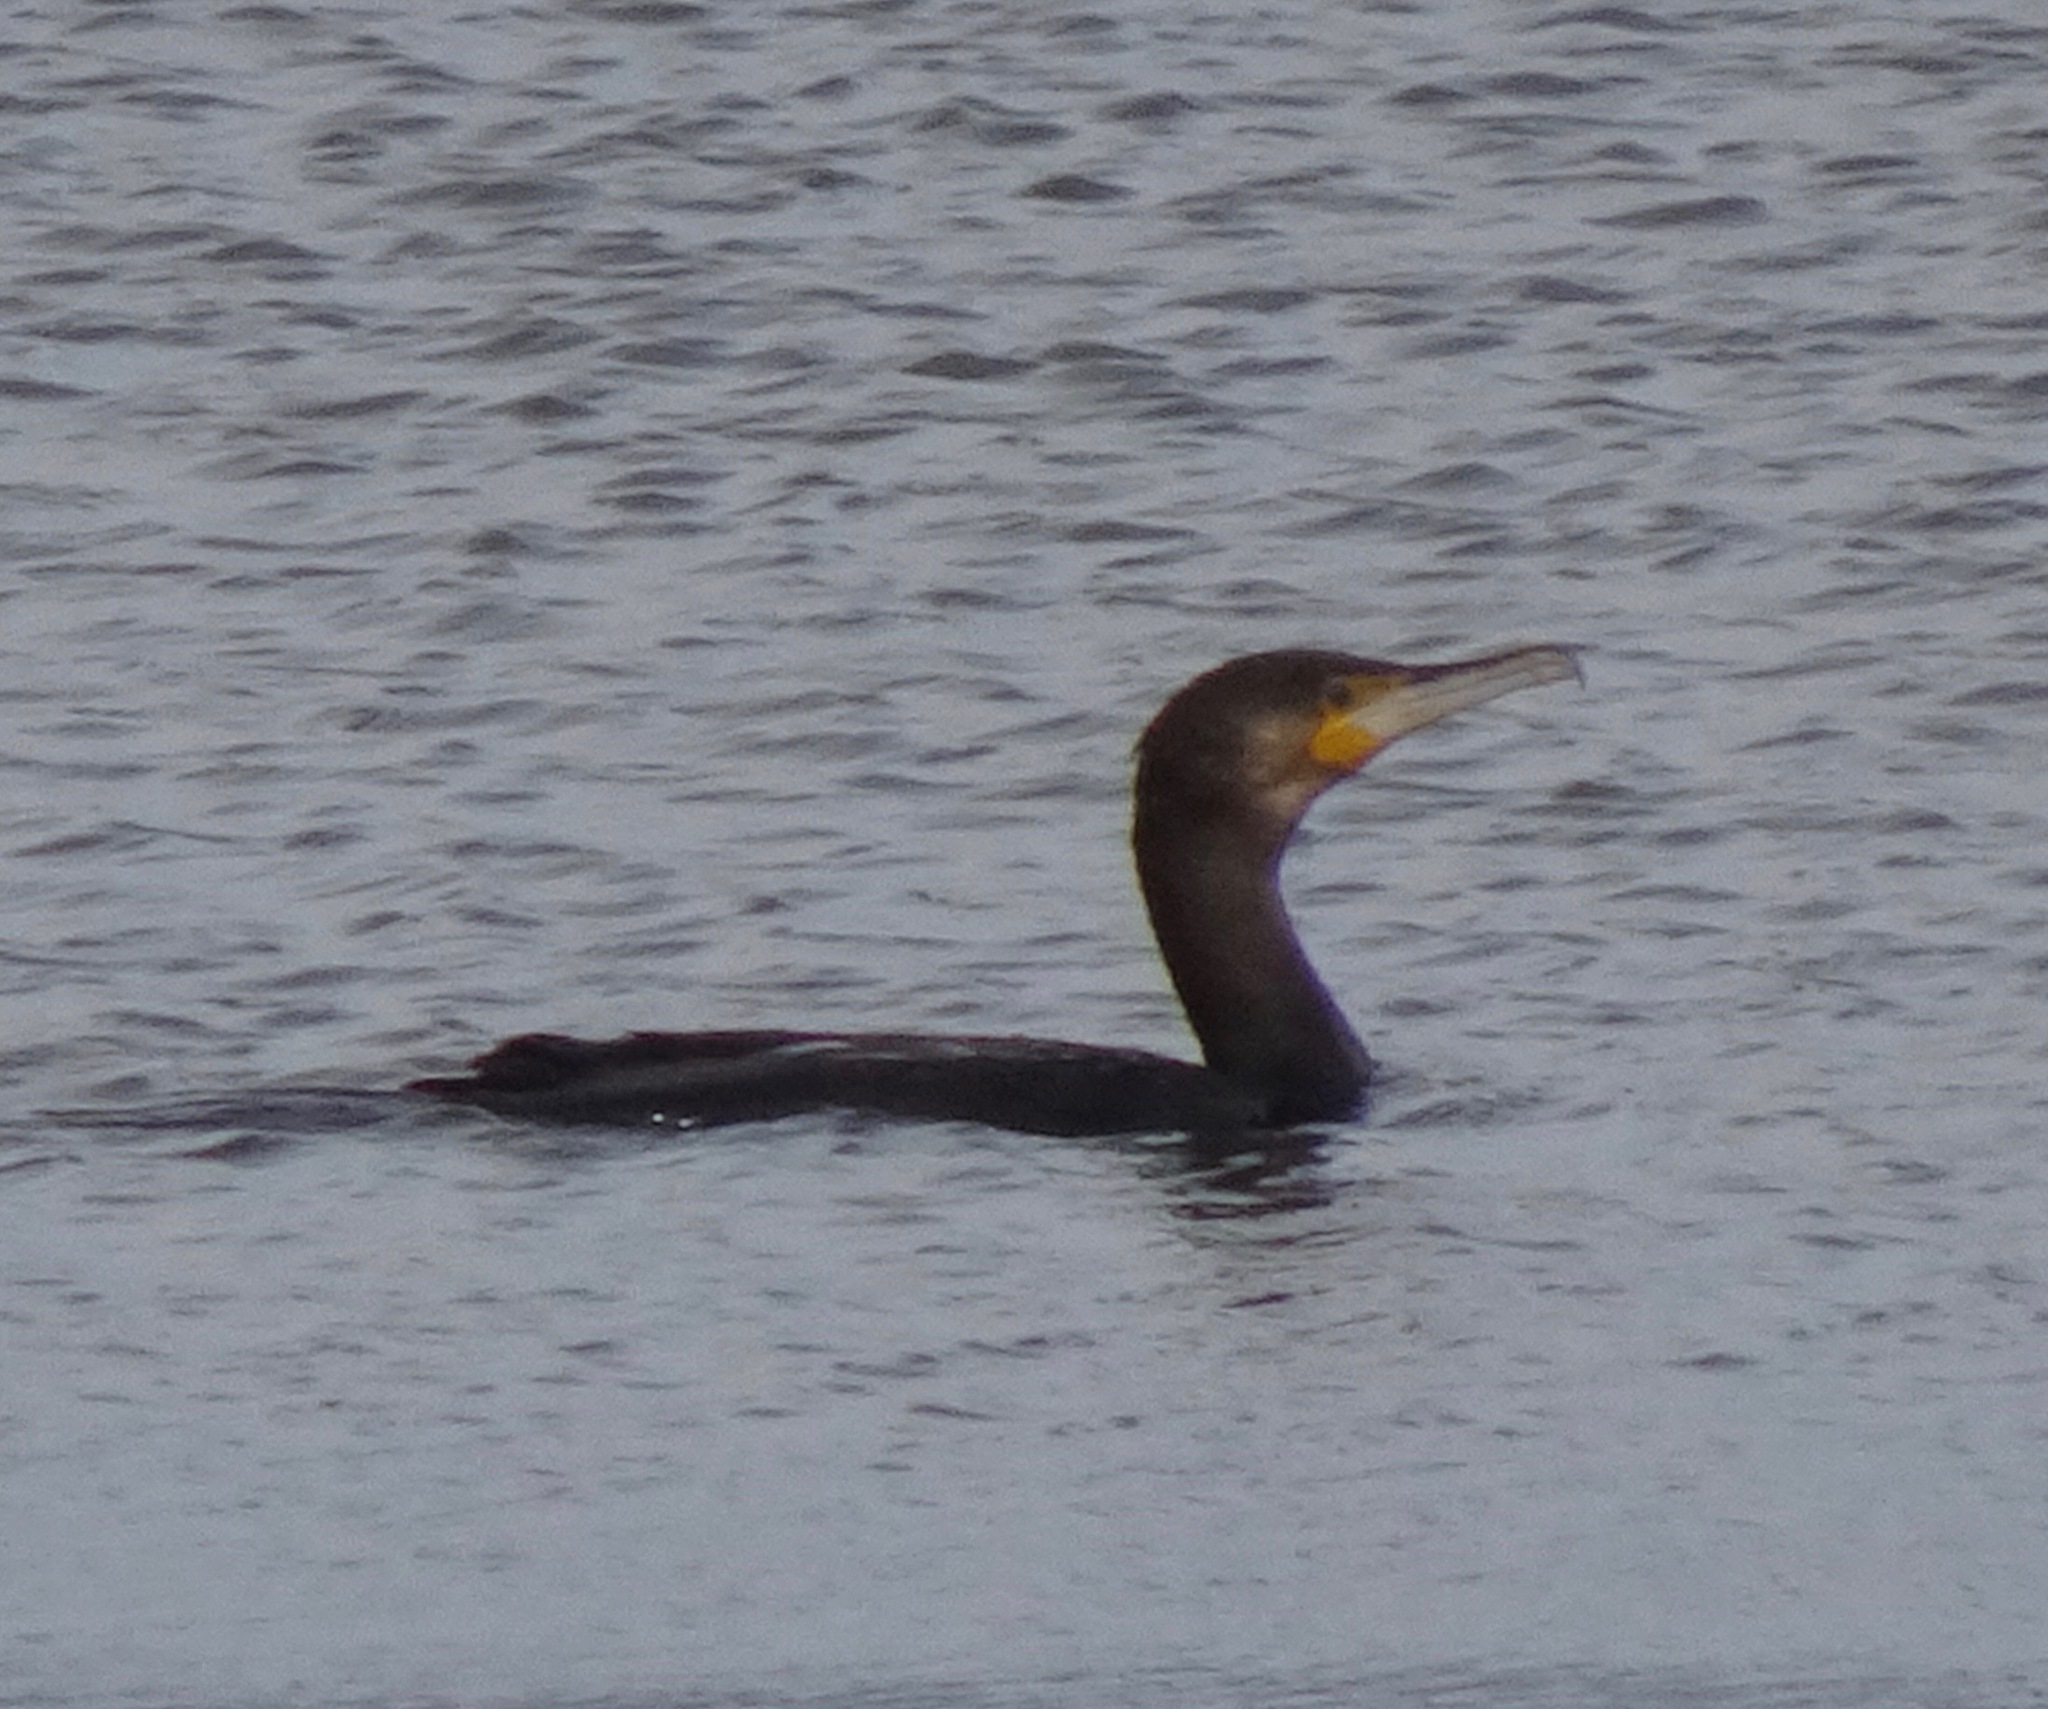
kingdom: Animalia
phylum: Chordata
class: Aves
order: Suliformes
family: Phalacrocoracidae
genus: Phalacrocorax
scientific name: Phalacrocorax carbo
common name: Great cormorant
